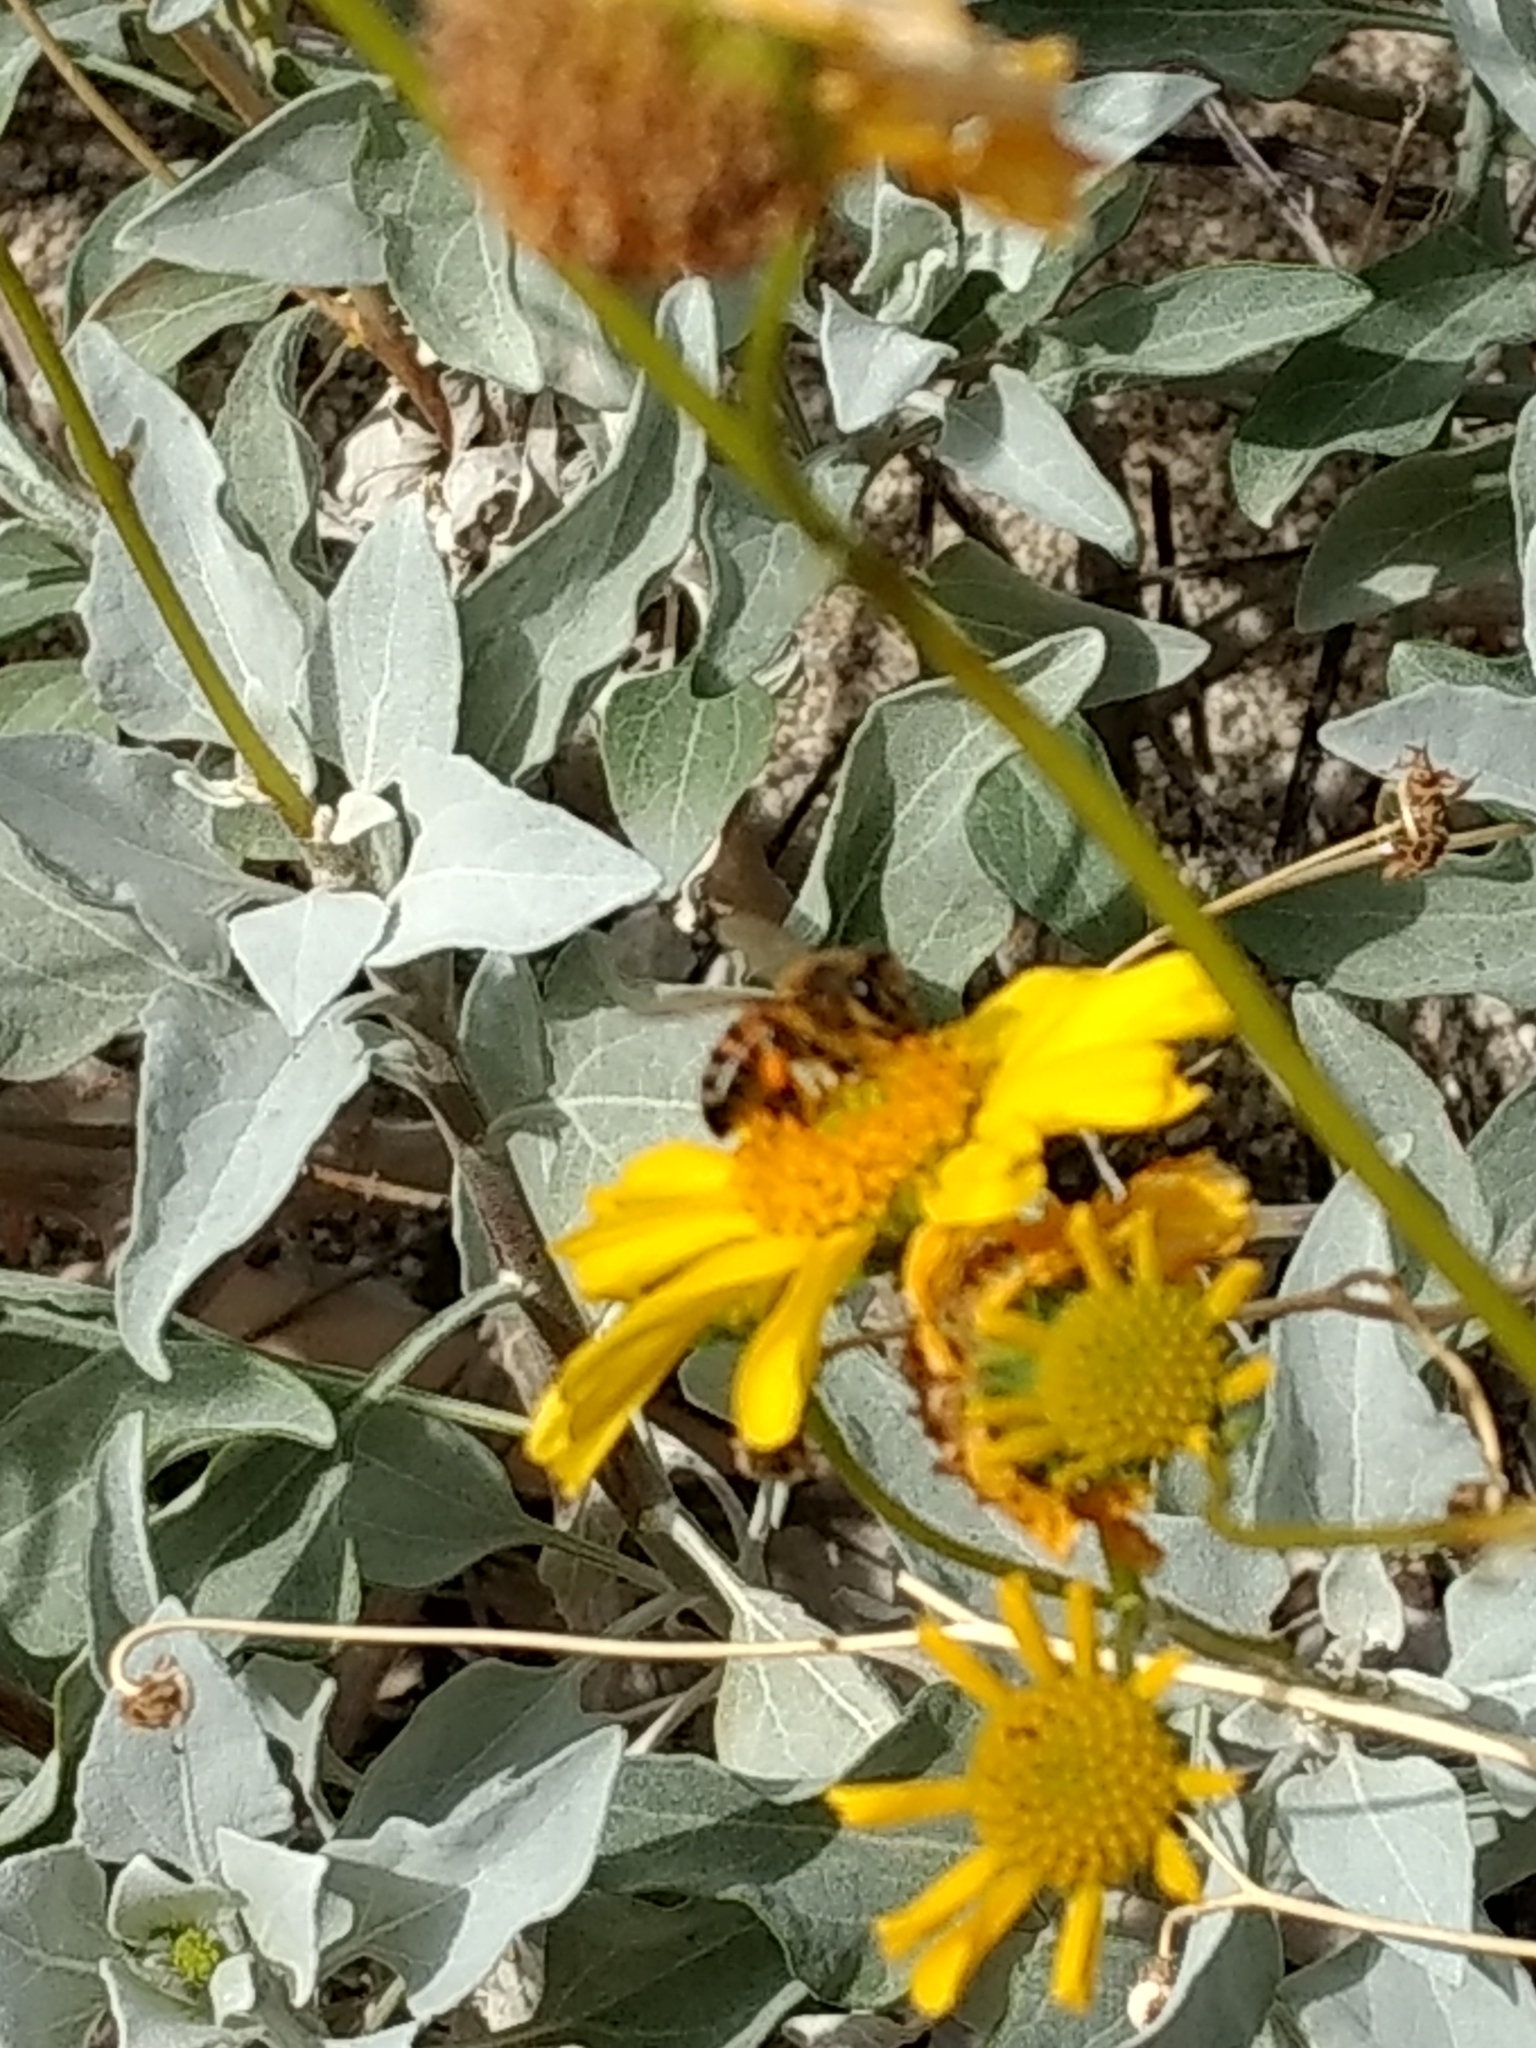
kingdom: Animalia
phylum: Arthropoda
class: Insecta
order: Hymenoptera
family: Apidae
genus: Apis
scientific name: Apis mellifera
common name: Honey bee
